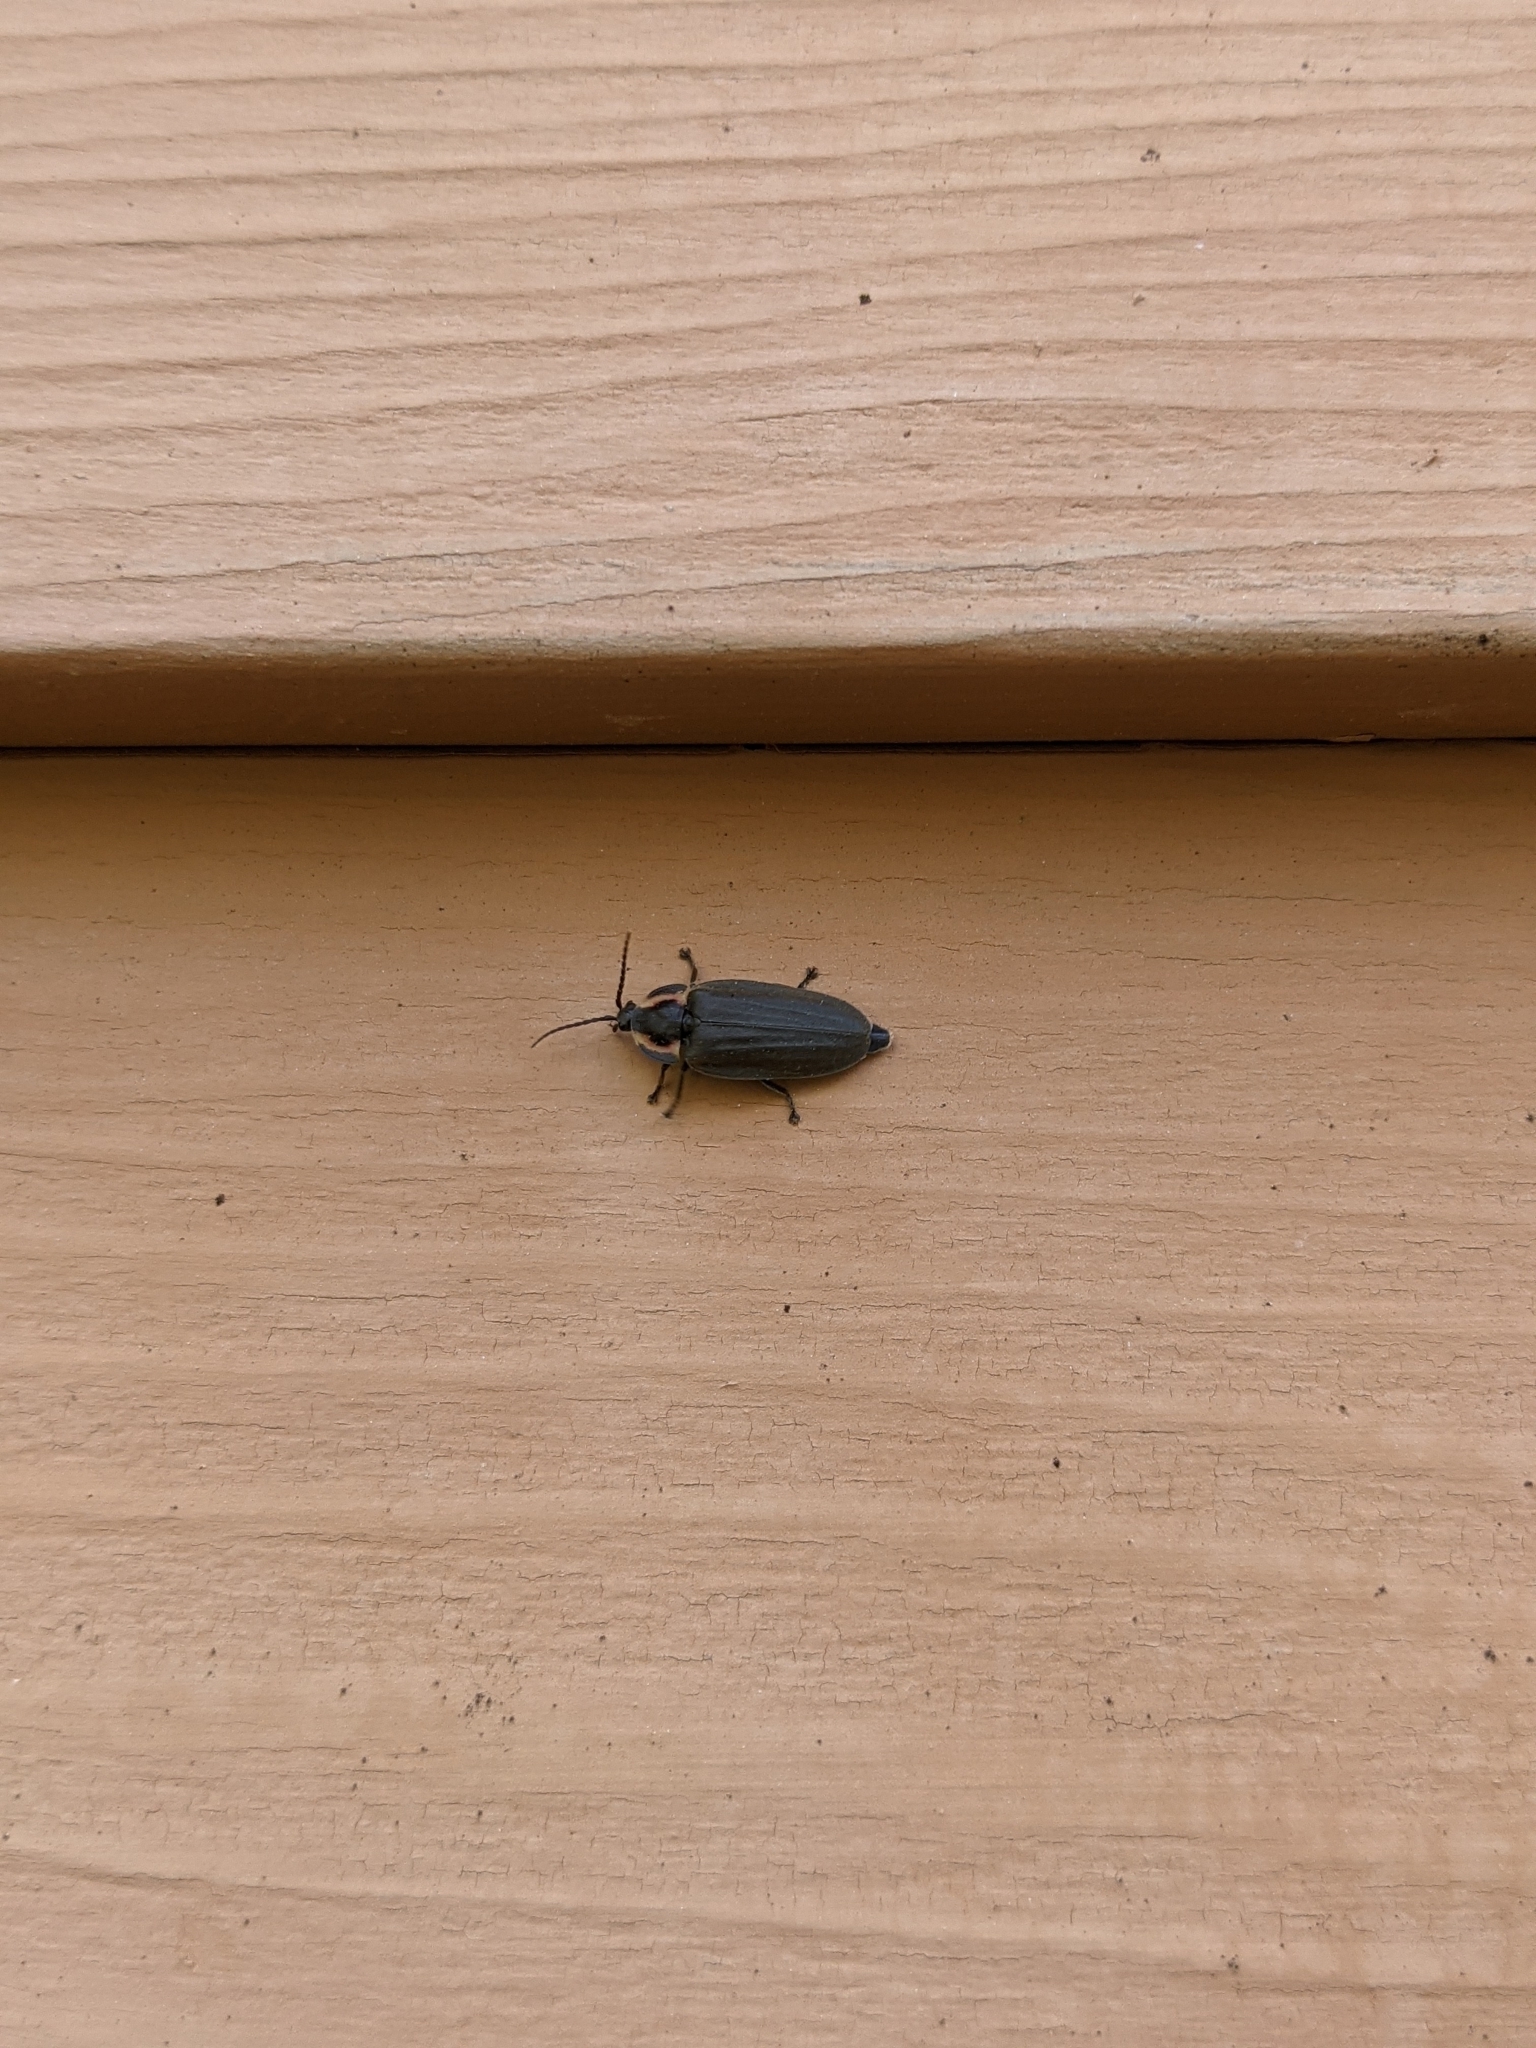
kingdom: Animalia
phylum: Arthropoda
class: Insecta
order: Coleoptera
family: Lampyridae
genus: Photinus
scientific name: Photinus corrusca
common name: Winter firefly
